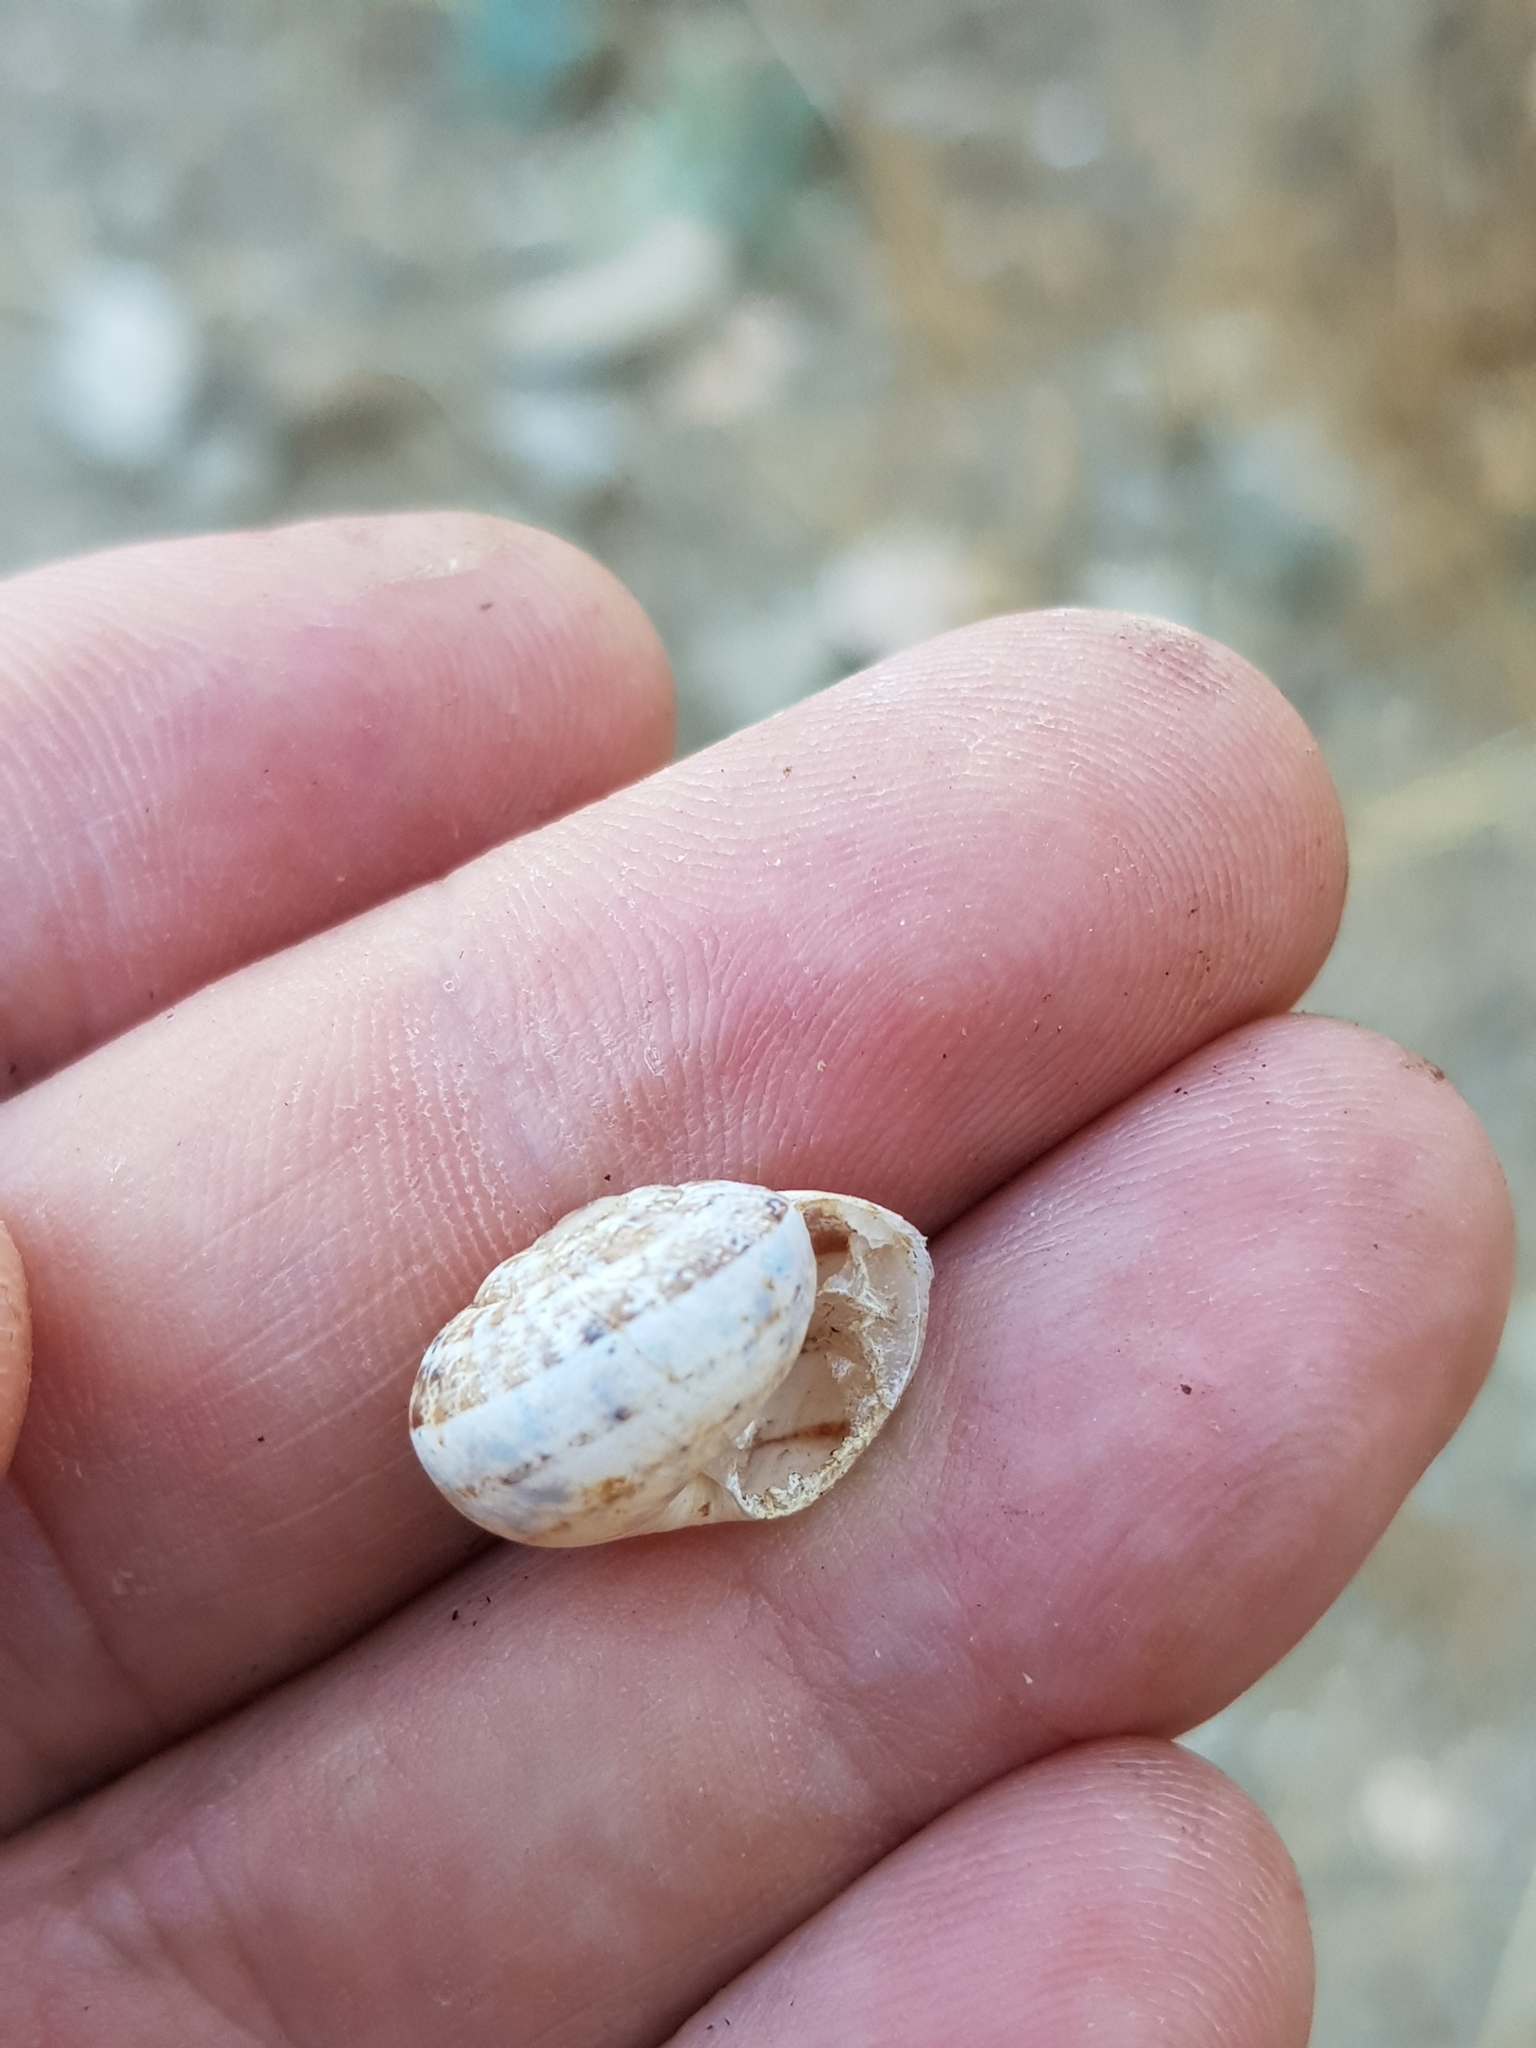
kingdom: Animalia
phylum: Mollusca
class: Gastropoda
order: Stylommatophora
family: Helicidae
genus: Eobania
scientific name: Eobania vermiculata
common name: Chocolateband snail
